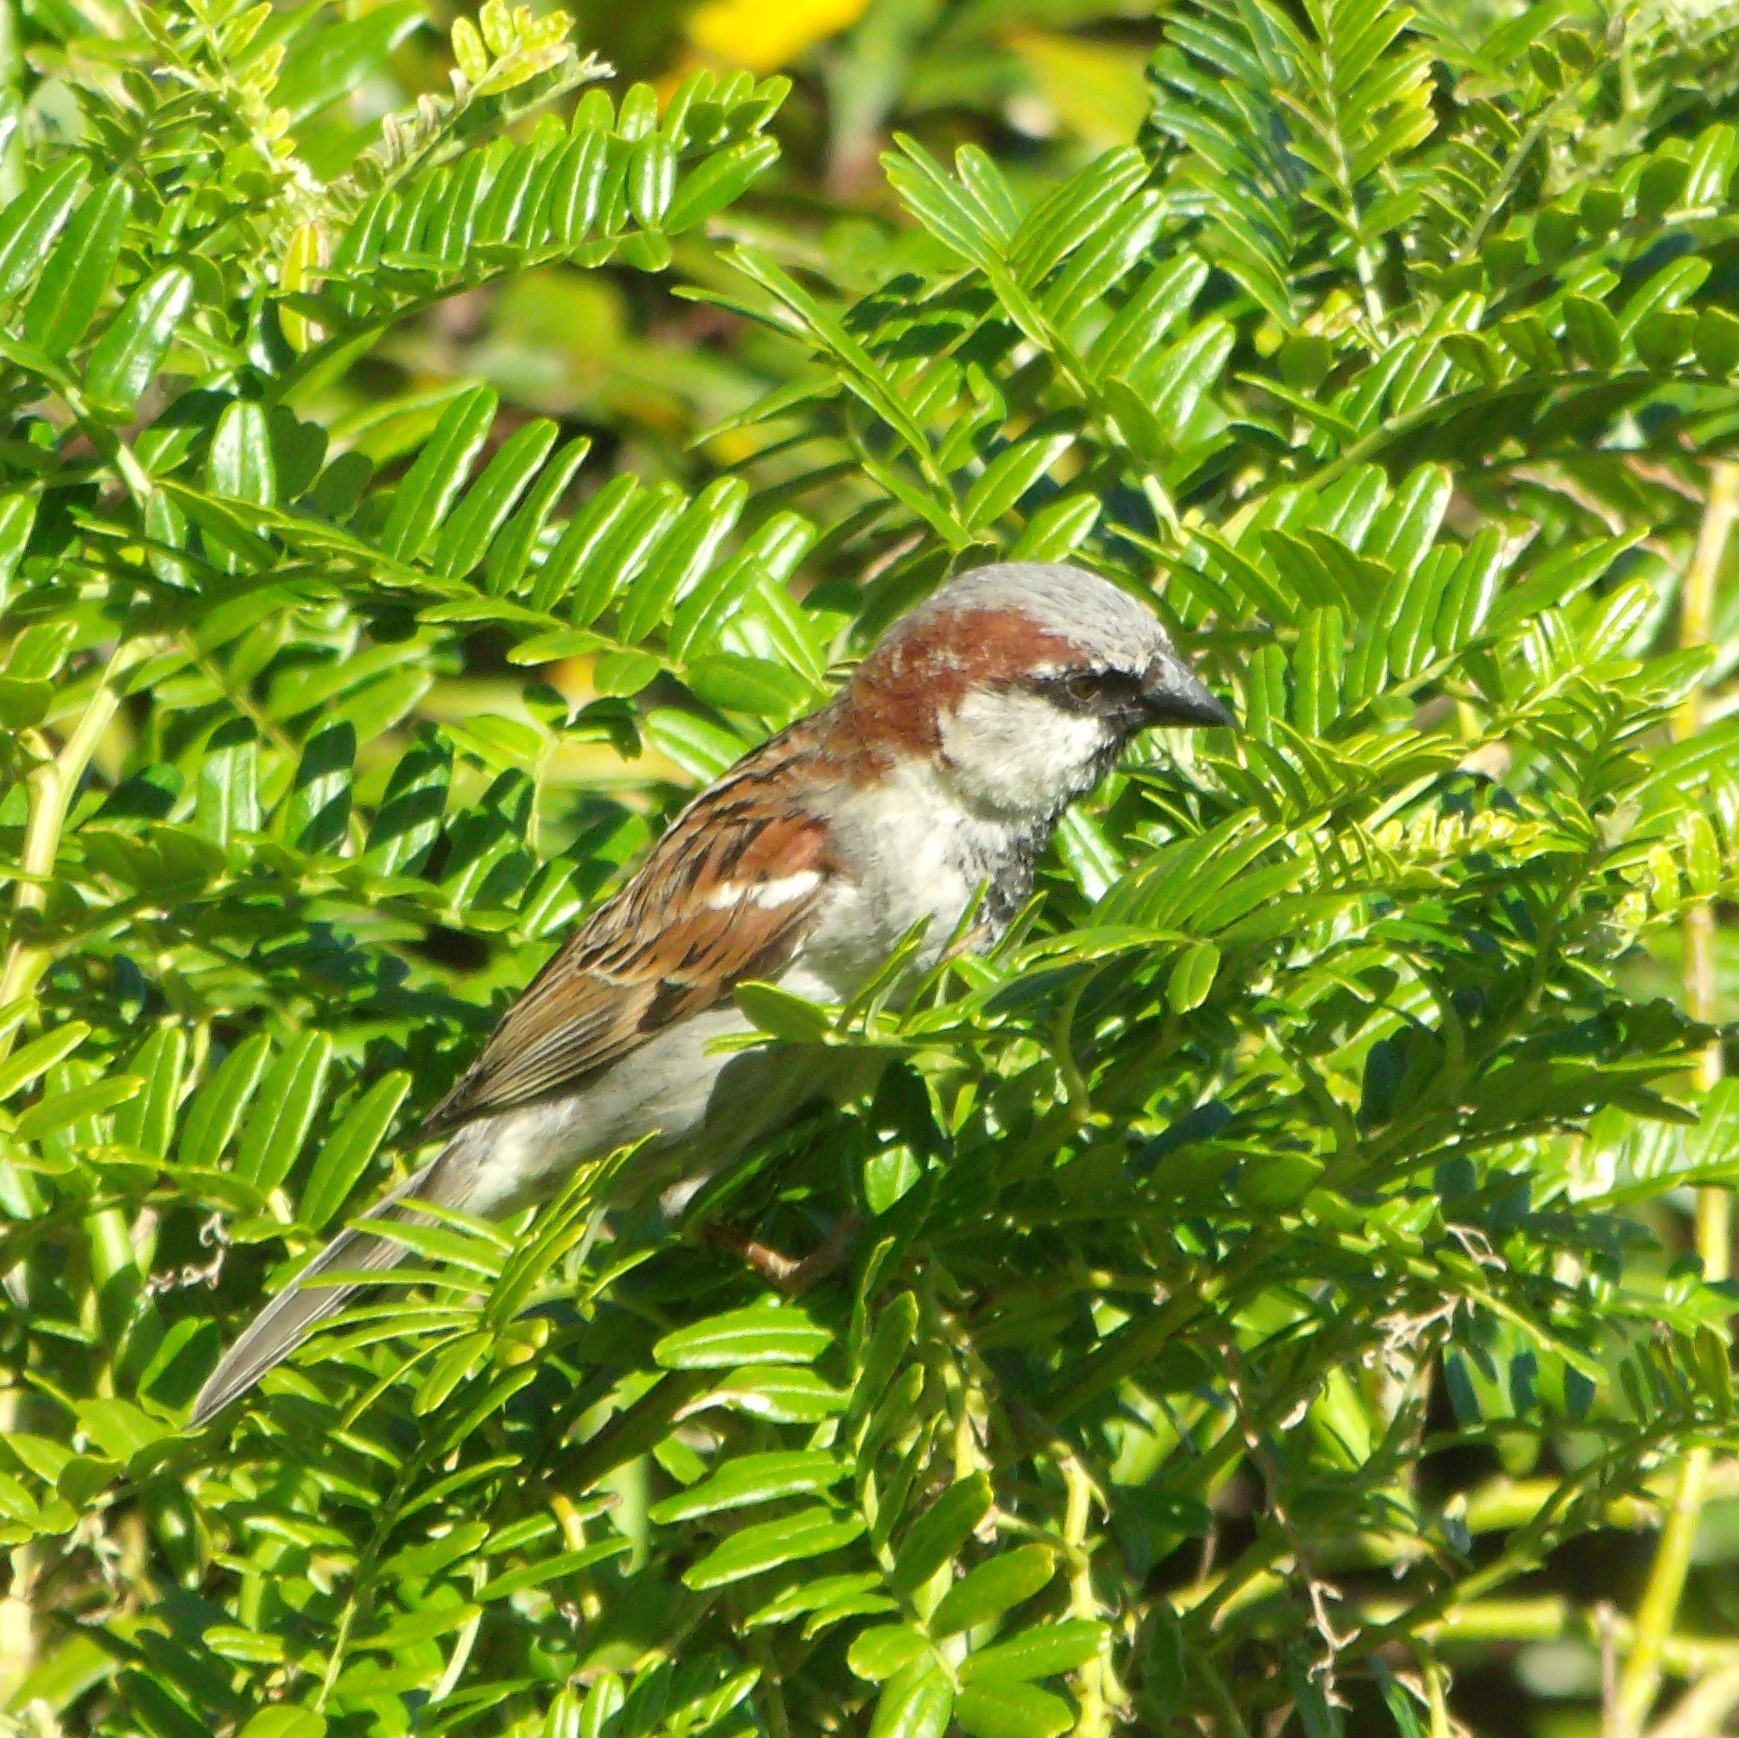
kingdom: Animalia
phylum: Chordata
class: Aves
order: Passeriformes
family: Passeridae
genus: Passer
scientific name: Passer domesticus
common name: House sparrow
